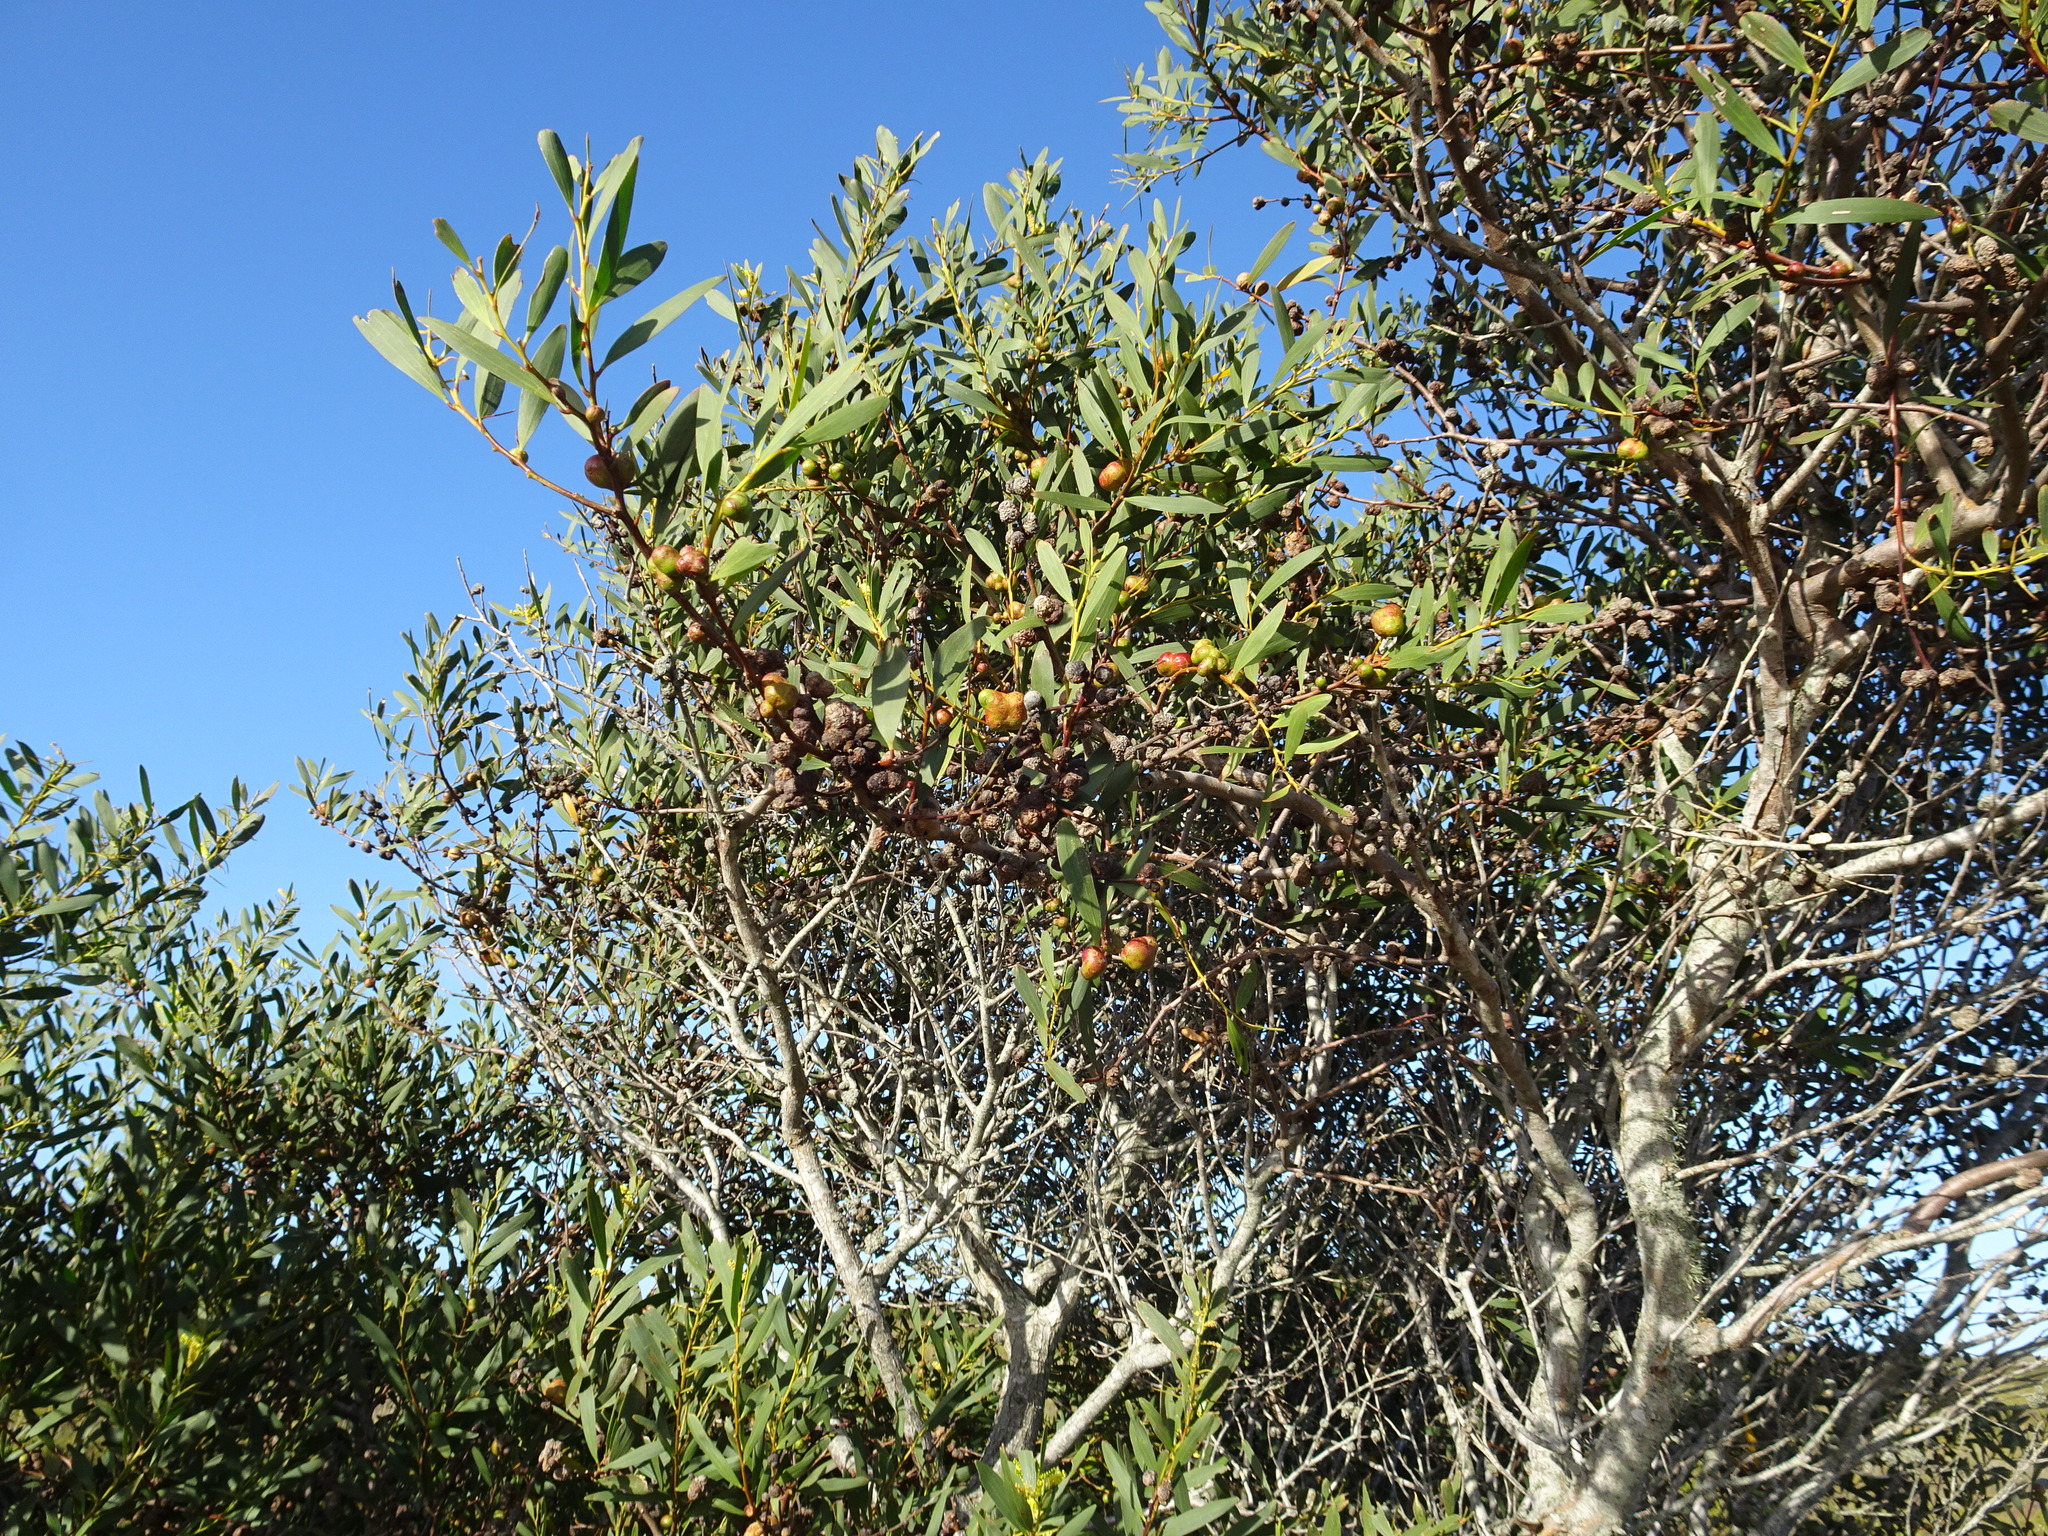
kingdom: Animalia
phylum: Arthropoda
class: Insecta
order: Hymenoptera
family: Pteromalidae
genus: Trichilogaster
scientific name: Trichilogaster acaciaelongifoliae
